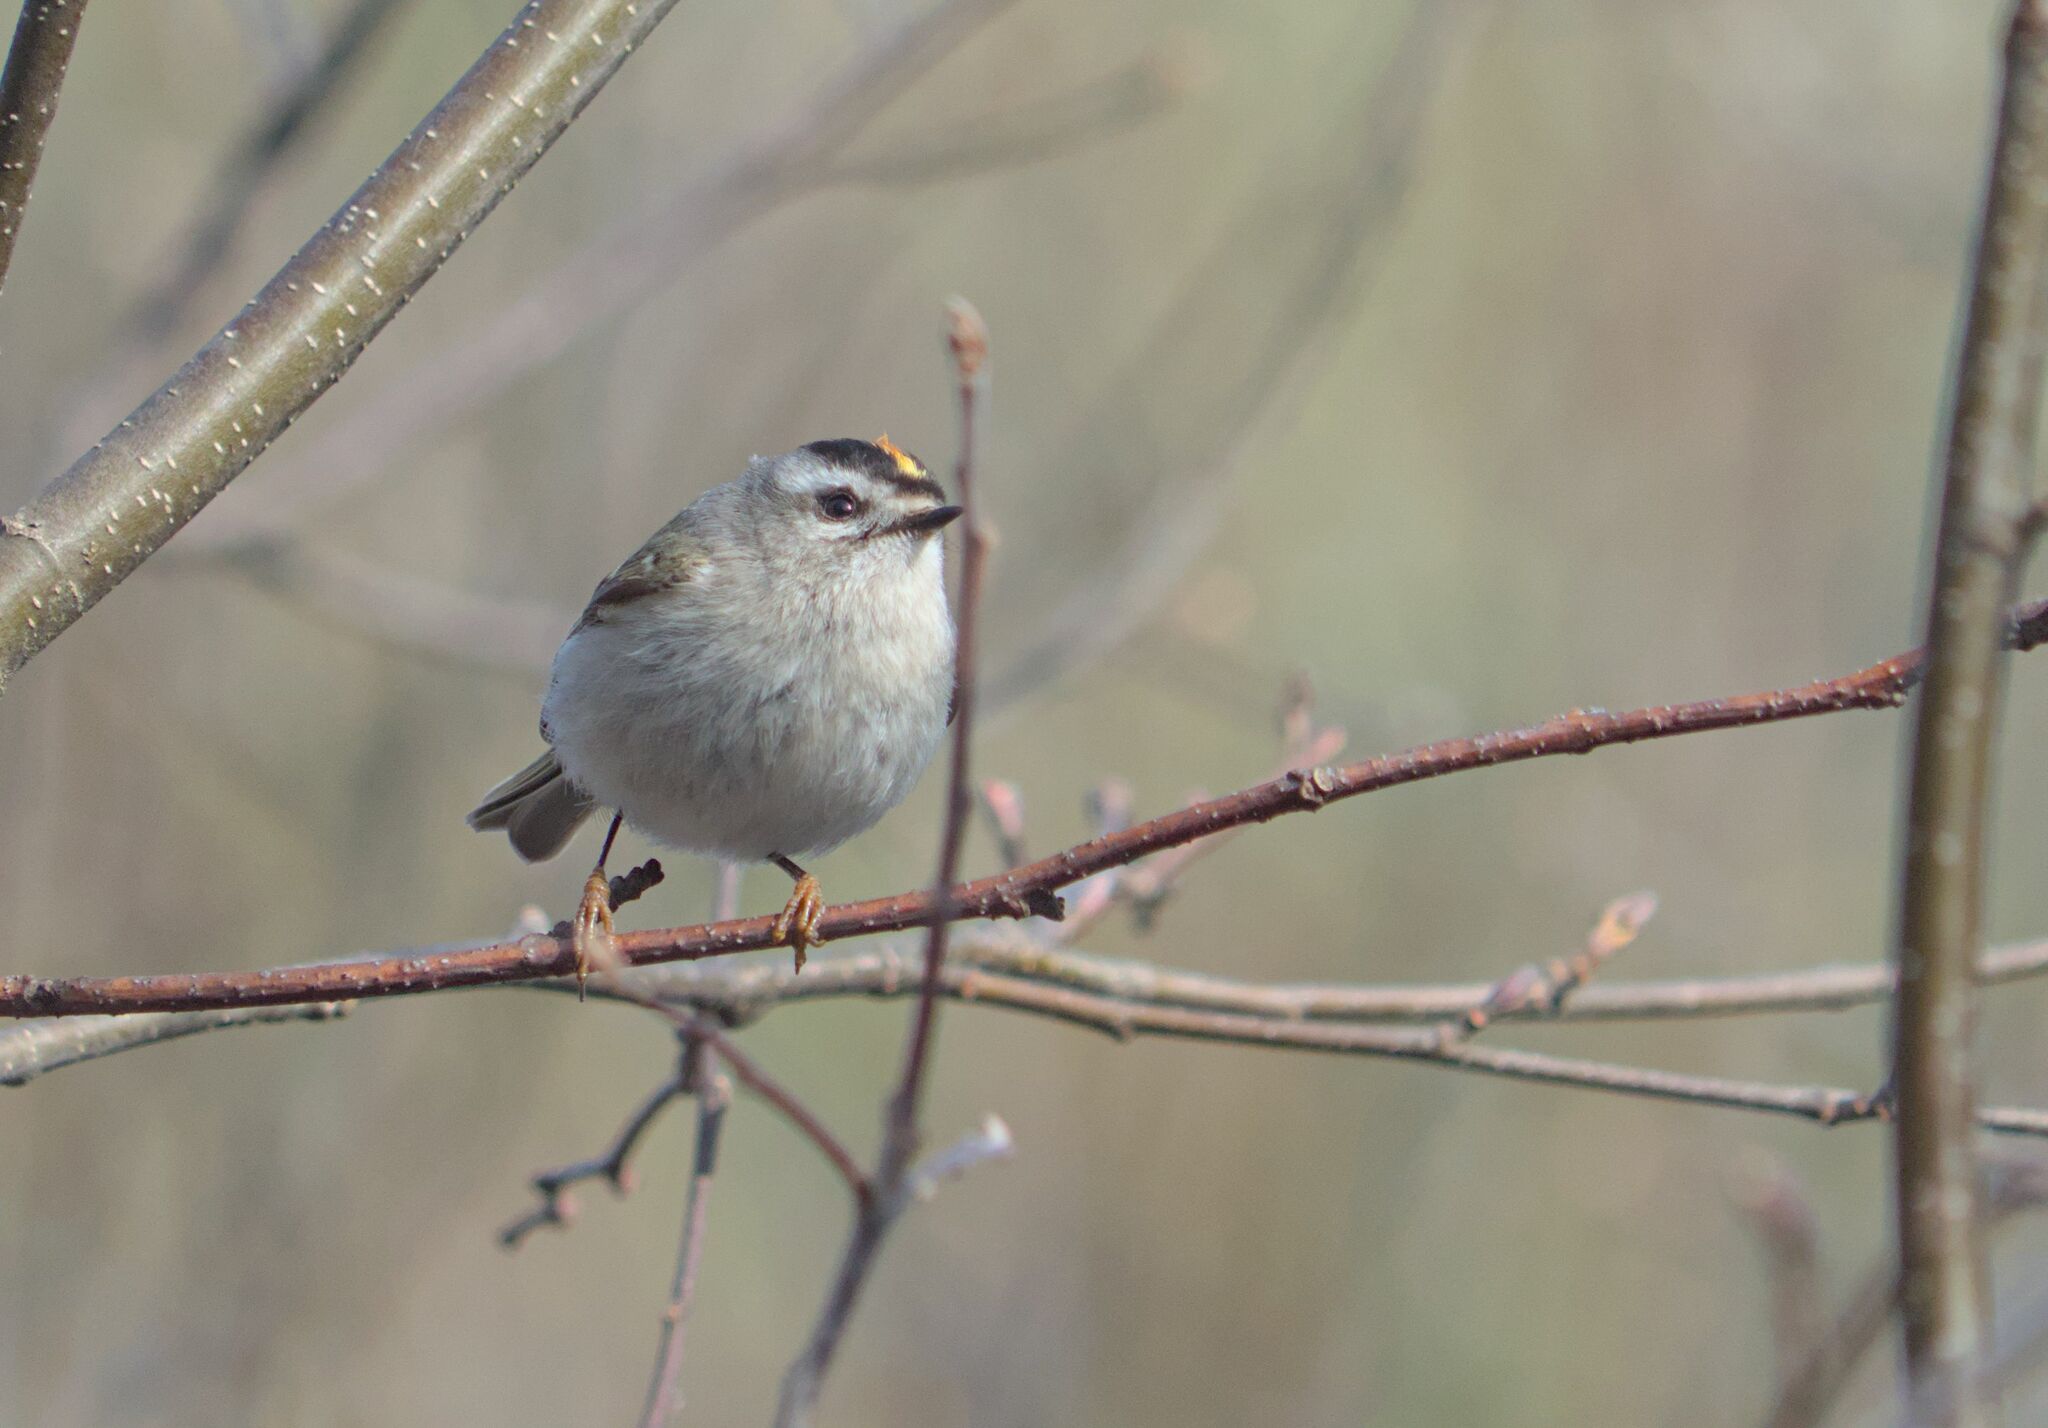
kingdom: Animalia
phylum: Chordata
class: Aves
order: Passeriformes
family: Regulidae
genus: Regulus
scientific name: Regulus satrapa
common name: Golden-crowned kinglet
